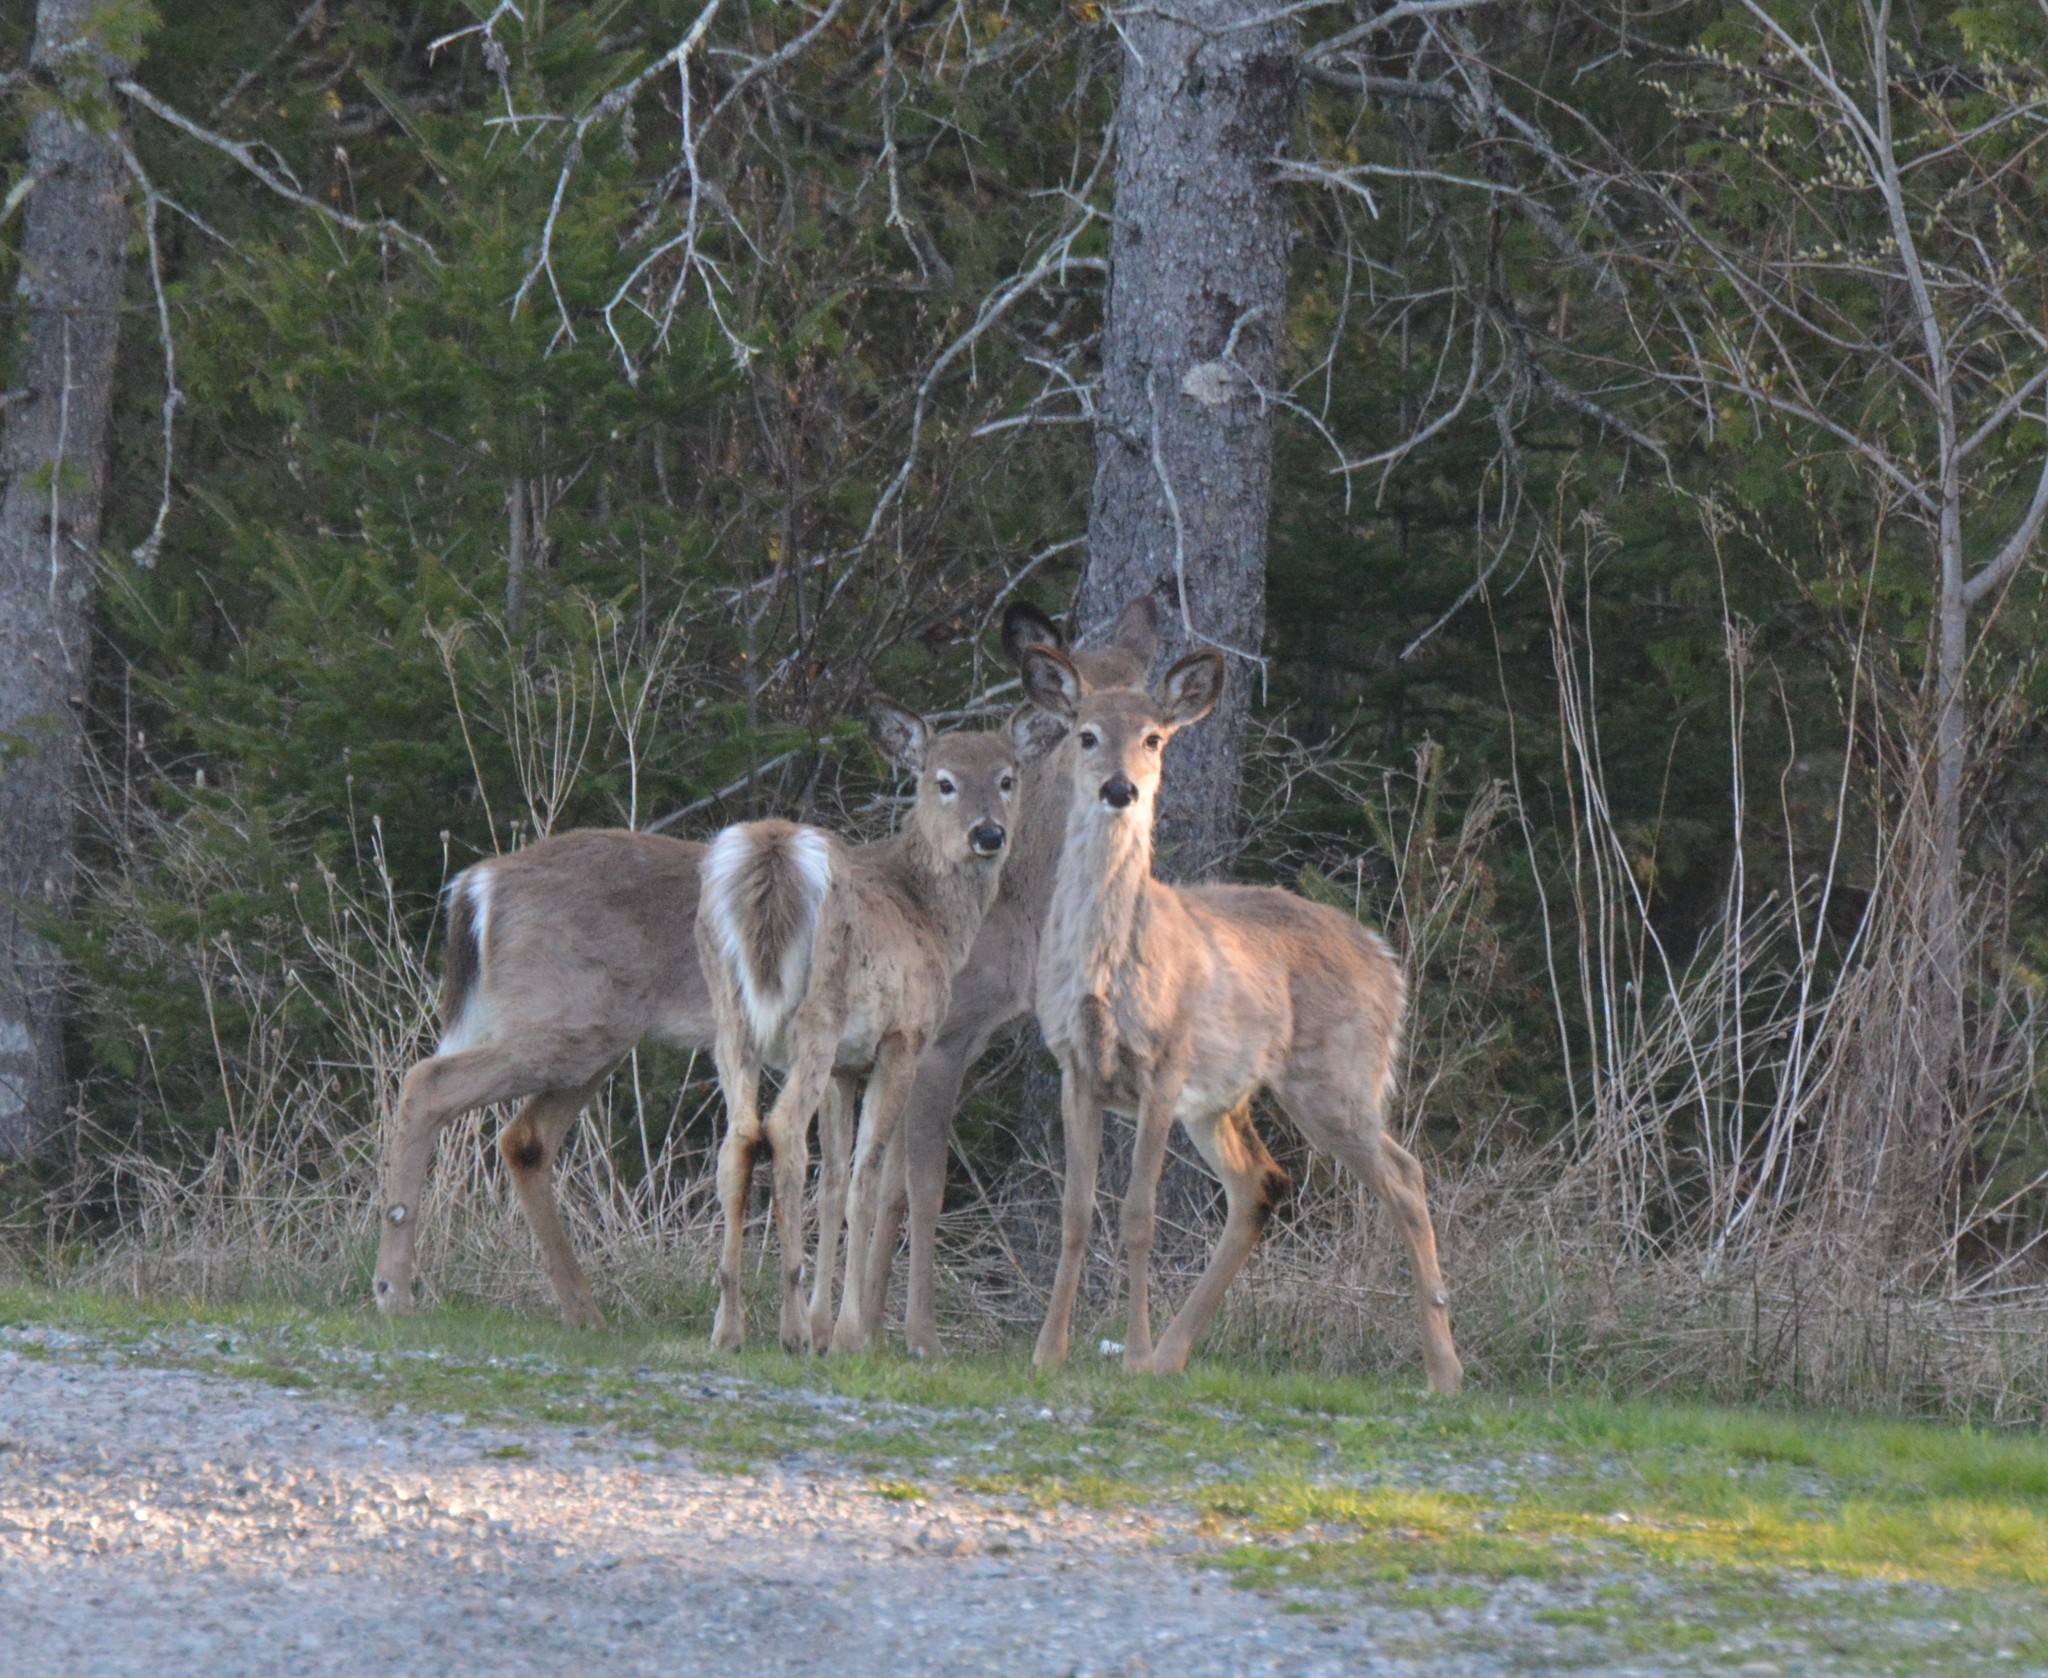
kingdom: Animalia
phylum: Chordata
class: Mammalia
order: Artiodactyla
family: Cervidae
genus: Odocoileus
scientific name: Odocoileus virginianus
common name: White-tailed deer
